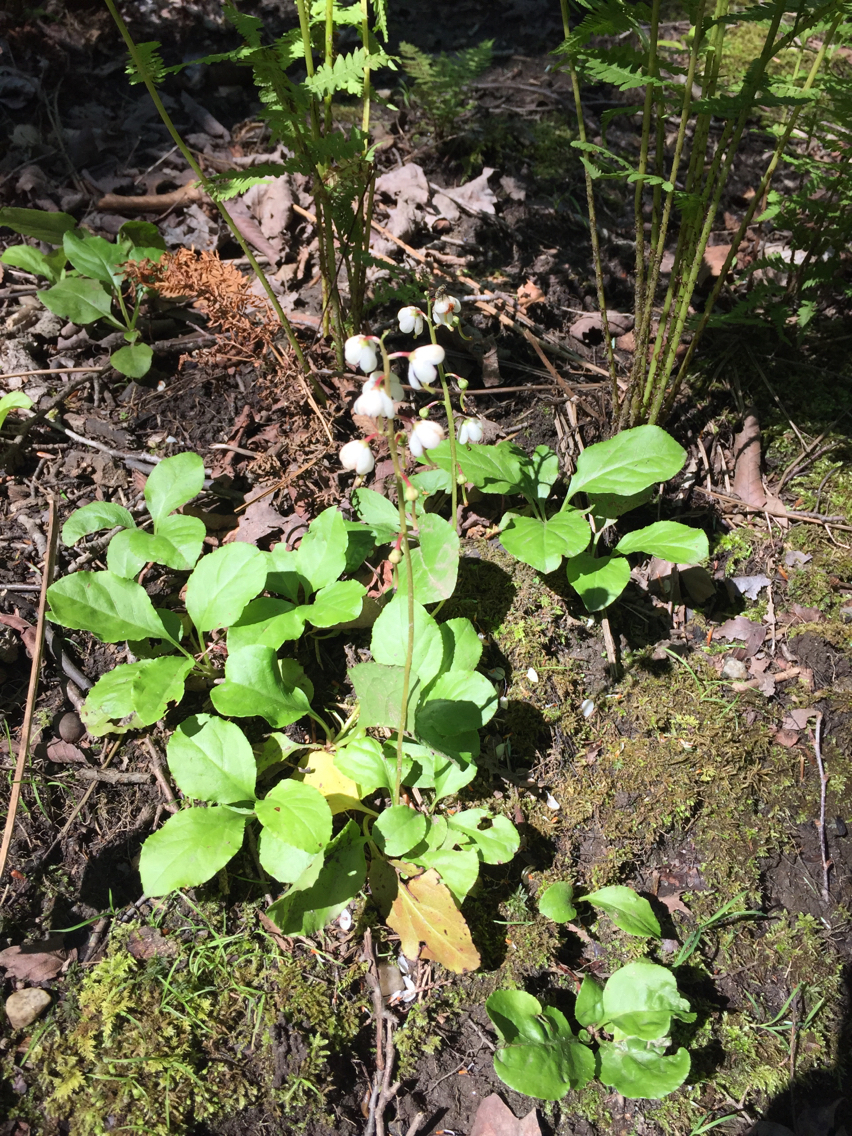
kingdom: Plantae
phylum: Tracheophyta
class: Magnoliopsida
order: Ericales
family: Ericaceae
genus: Pyrola
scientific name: Pyrola elliptica
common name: Shinleaf
